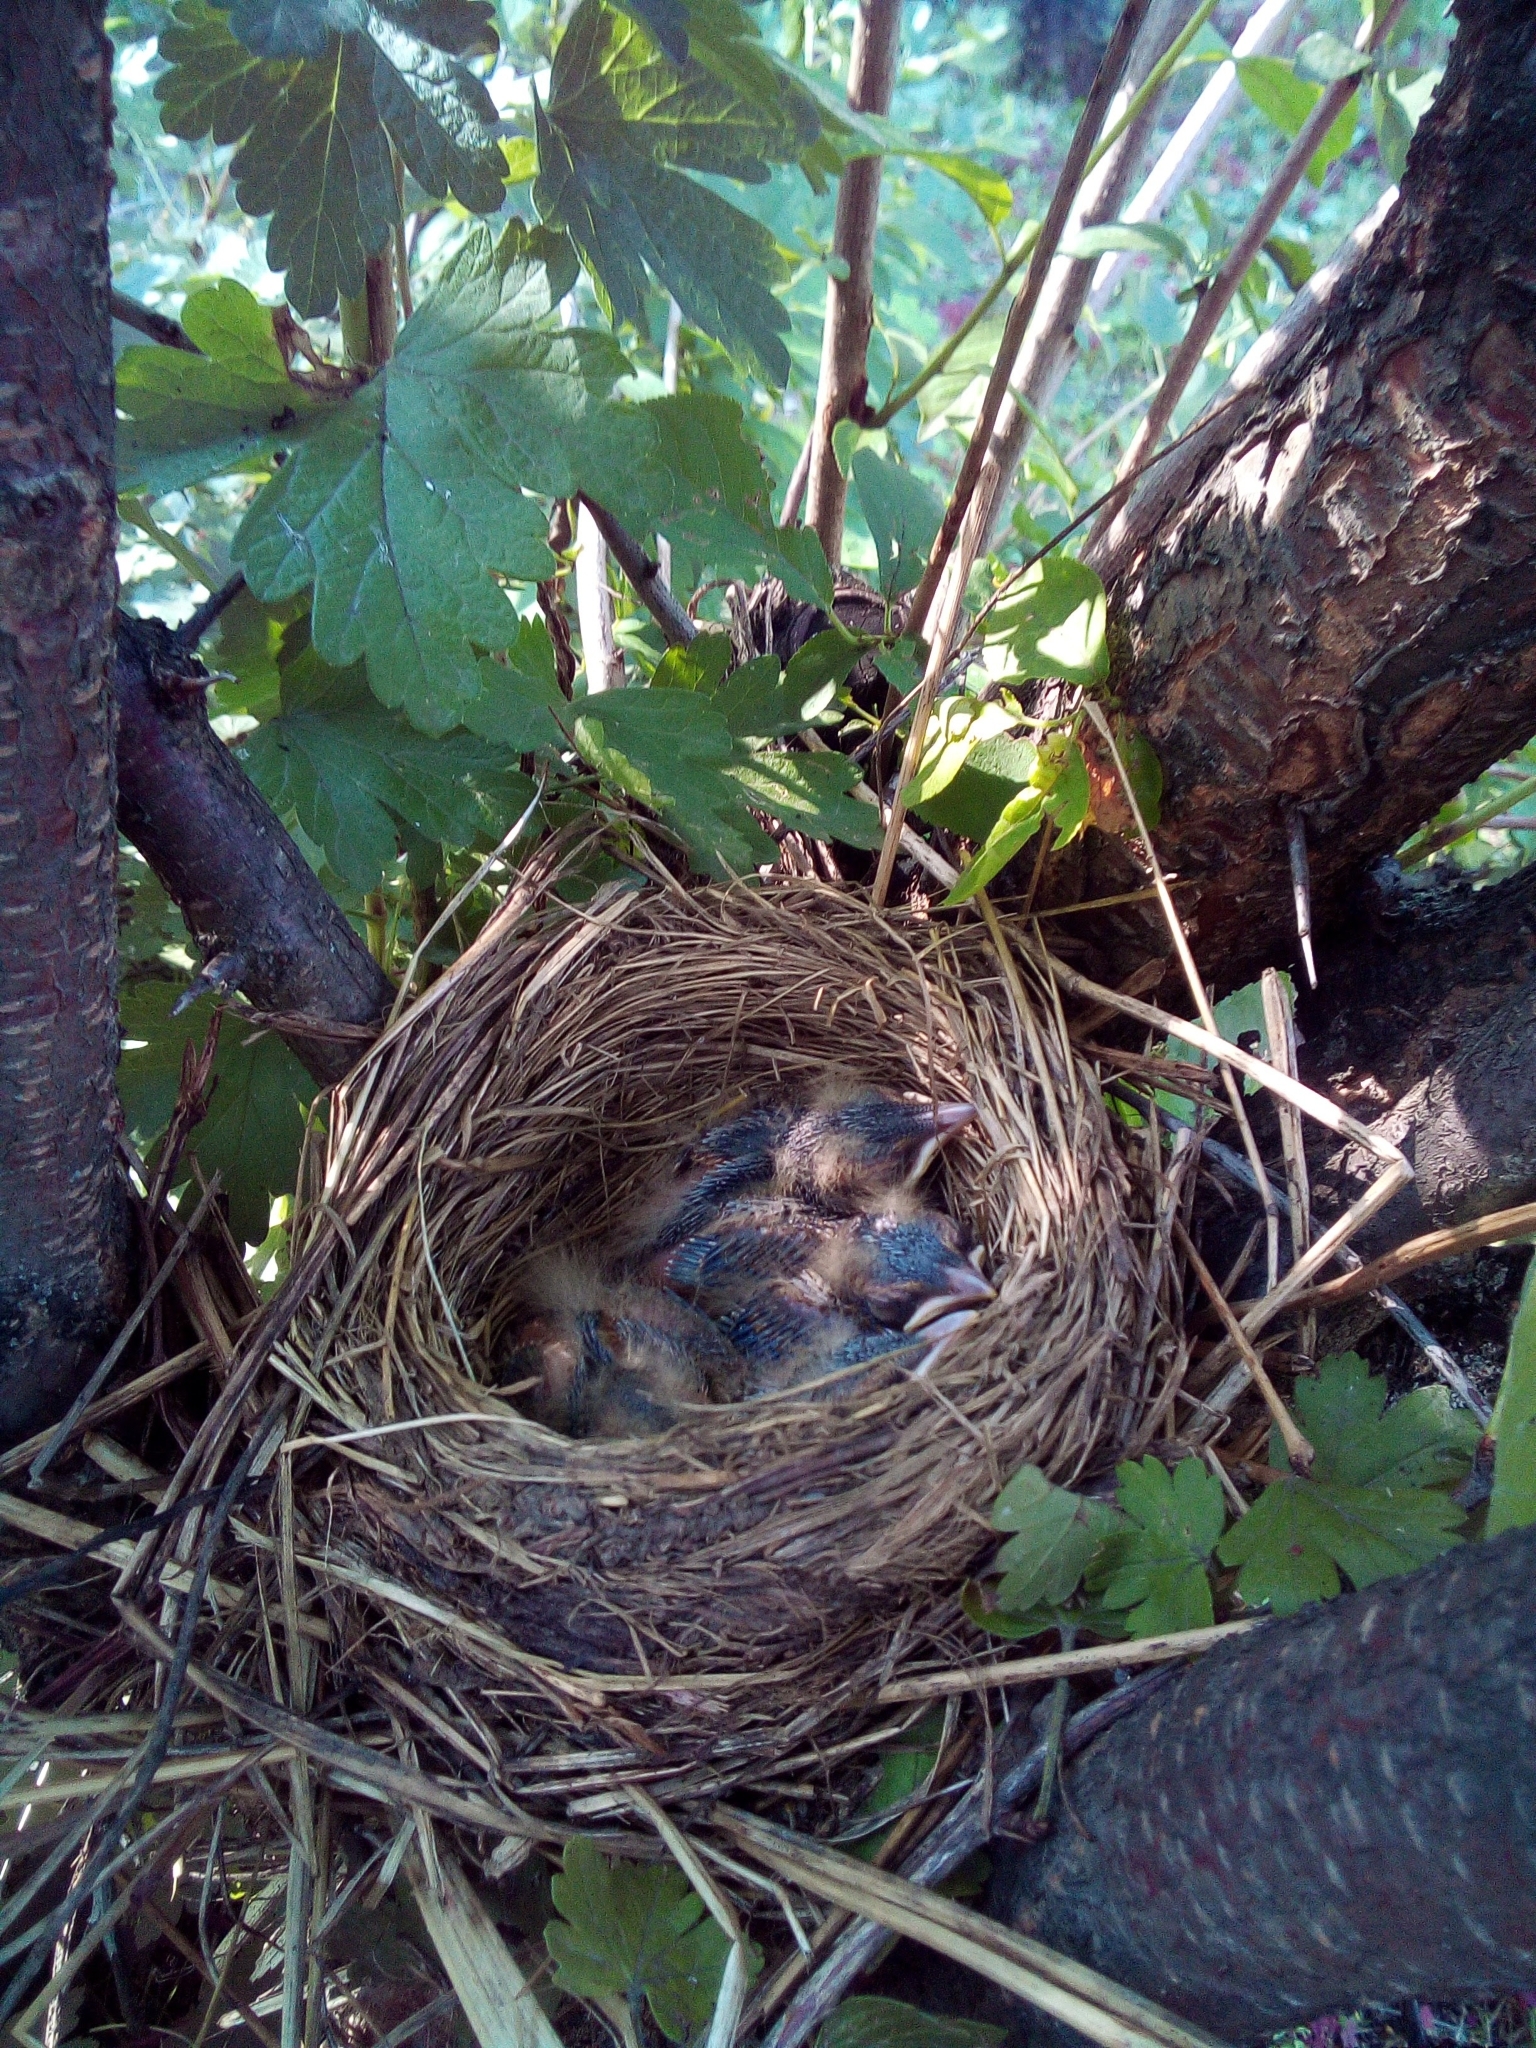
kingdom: Animalia
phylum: Chordata
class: Aves
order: Passeriformes
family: Turdidae
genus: Turdus
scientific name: Turdus iliacus
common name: Redwing
